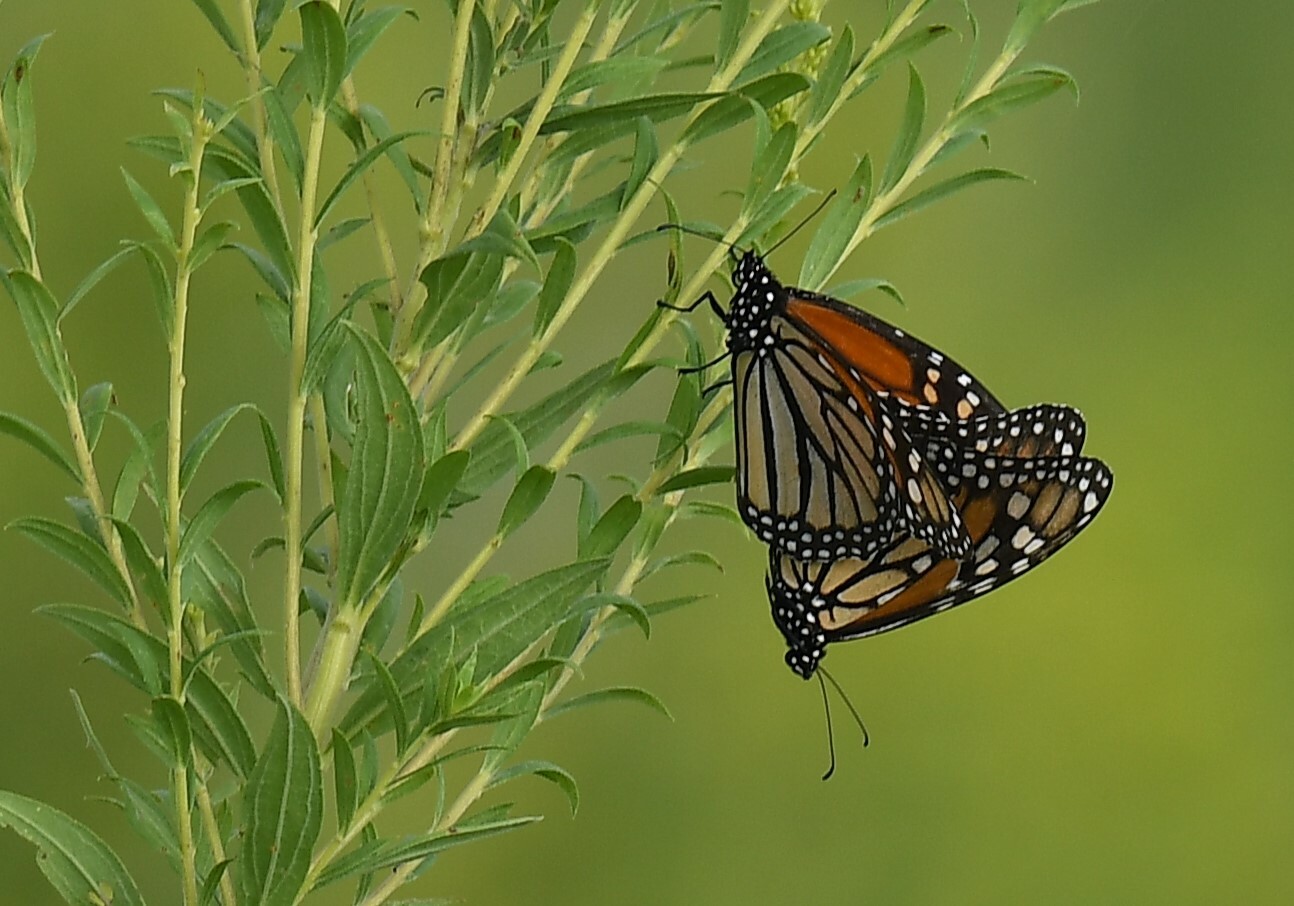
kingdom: Animalia
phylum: Arthropoda
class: Insecta
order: Lepidoptera
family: Nymphalidae
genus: Danaus
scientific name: Danaus plexippus
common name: Monarch
